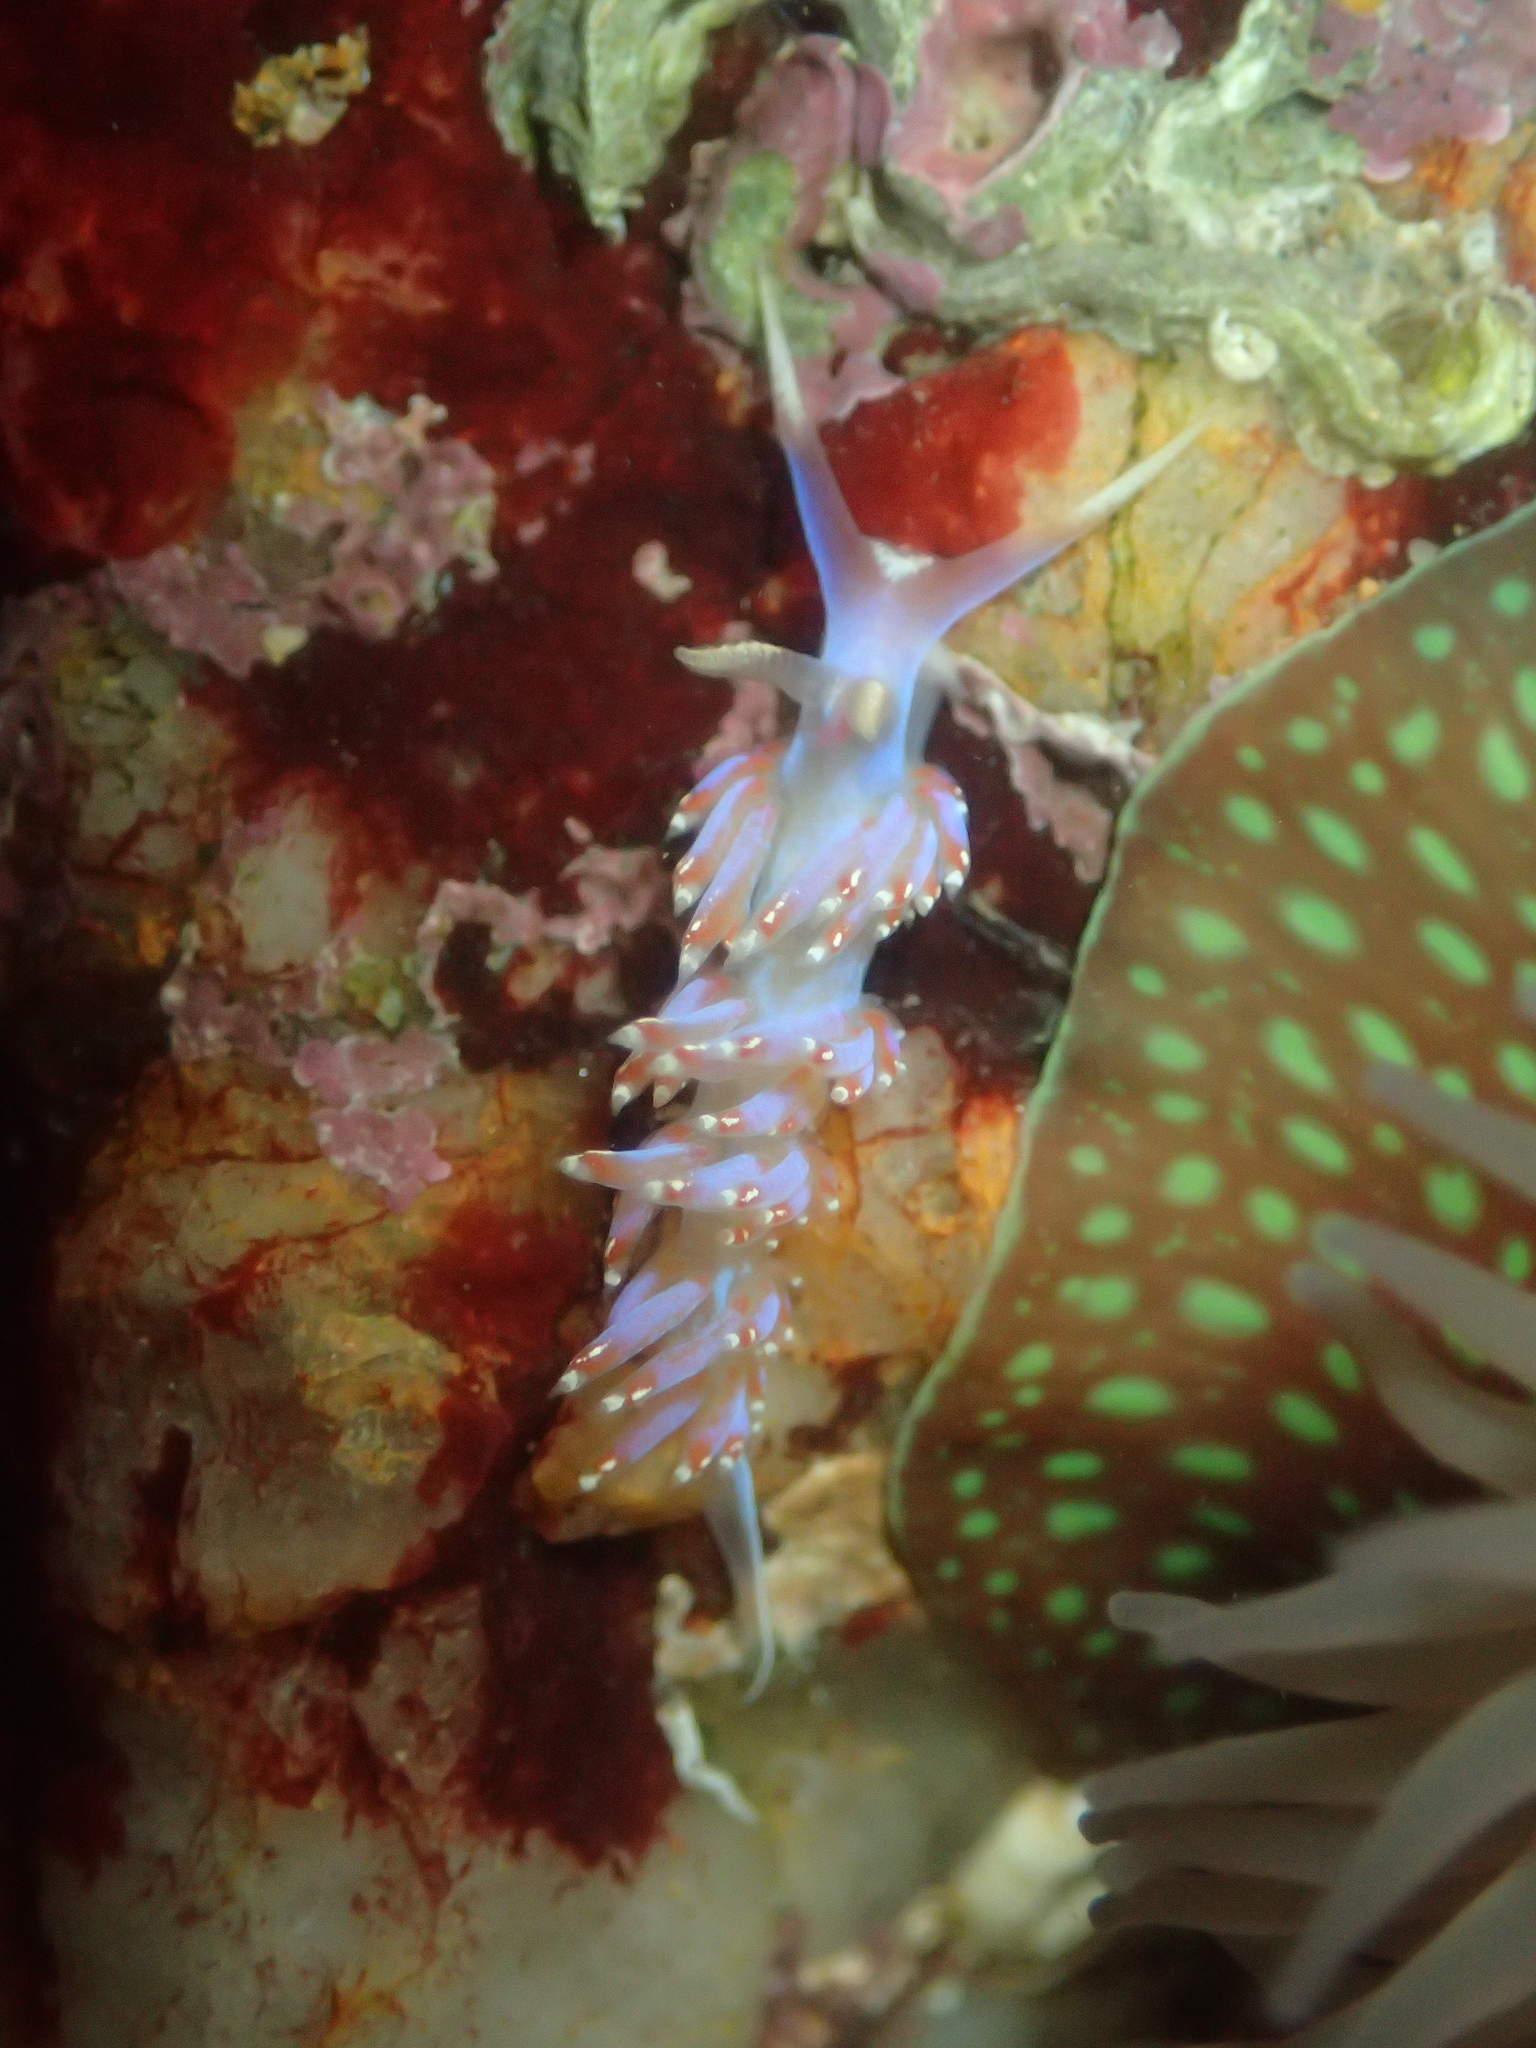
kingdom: Animalia
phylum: Mollusca
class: Gastropoda
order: Nudibranchia
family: Facelinidae
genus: Facelina
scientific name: Facelina auriculata
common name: Slender facelina
